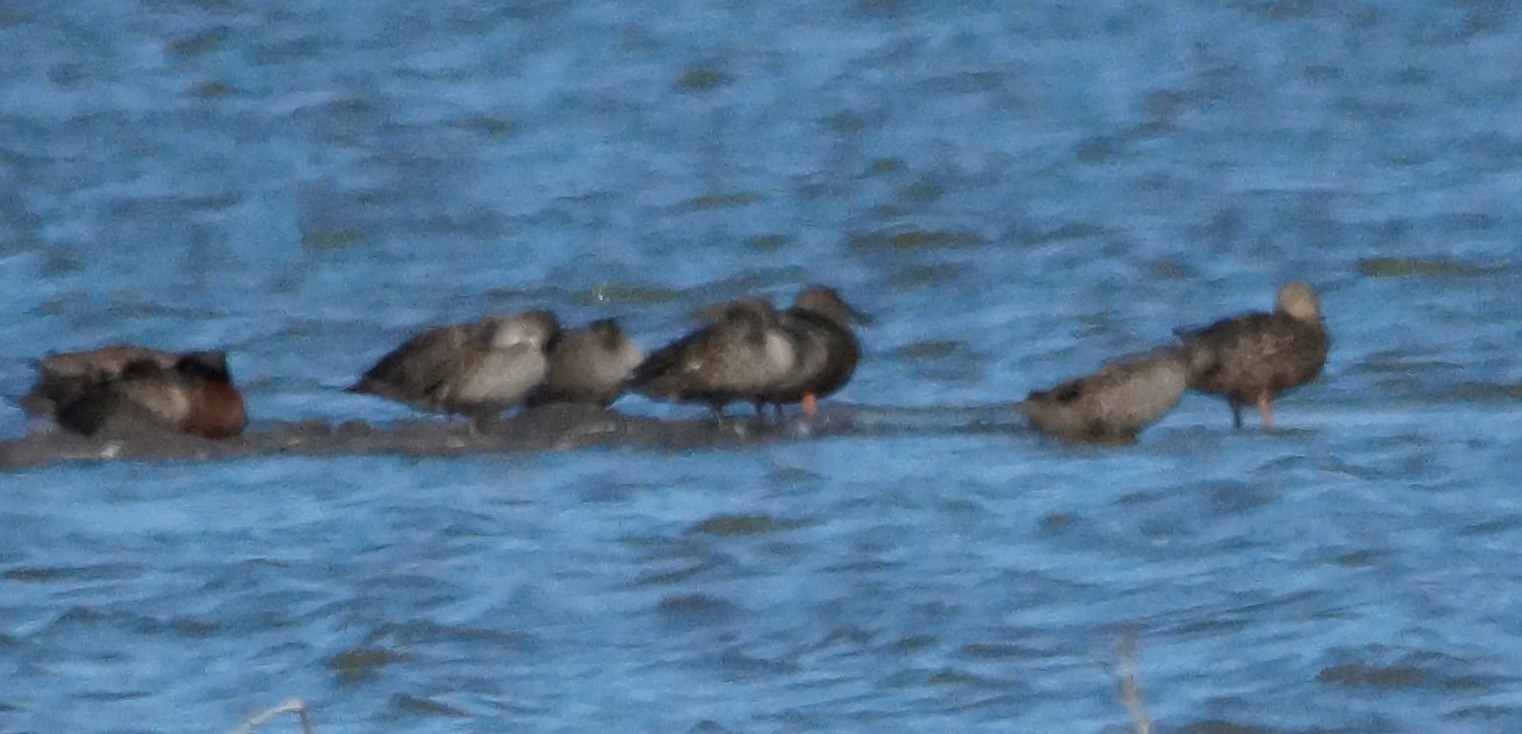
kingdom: Animalia
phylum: Chordata
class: Aves
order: Anseriformes
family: Anatidae
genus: Anas
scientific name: Anas castanea
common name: Chestnut teal
